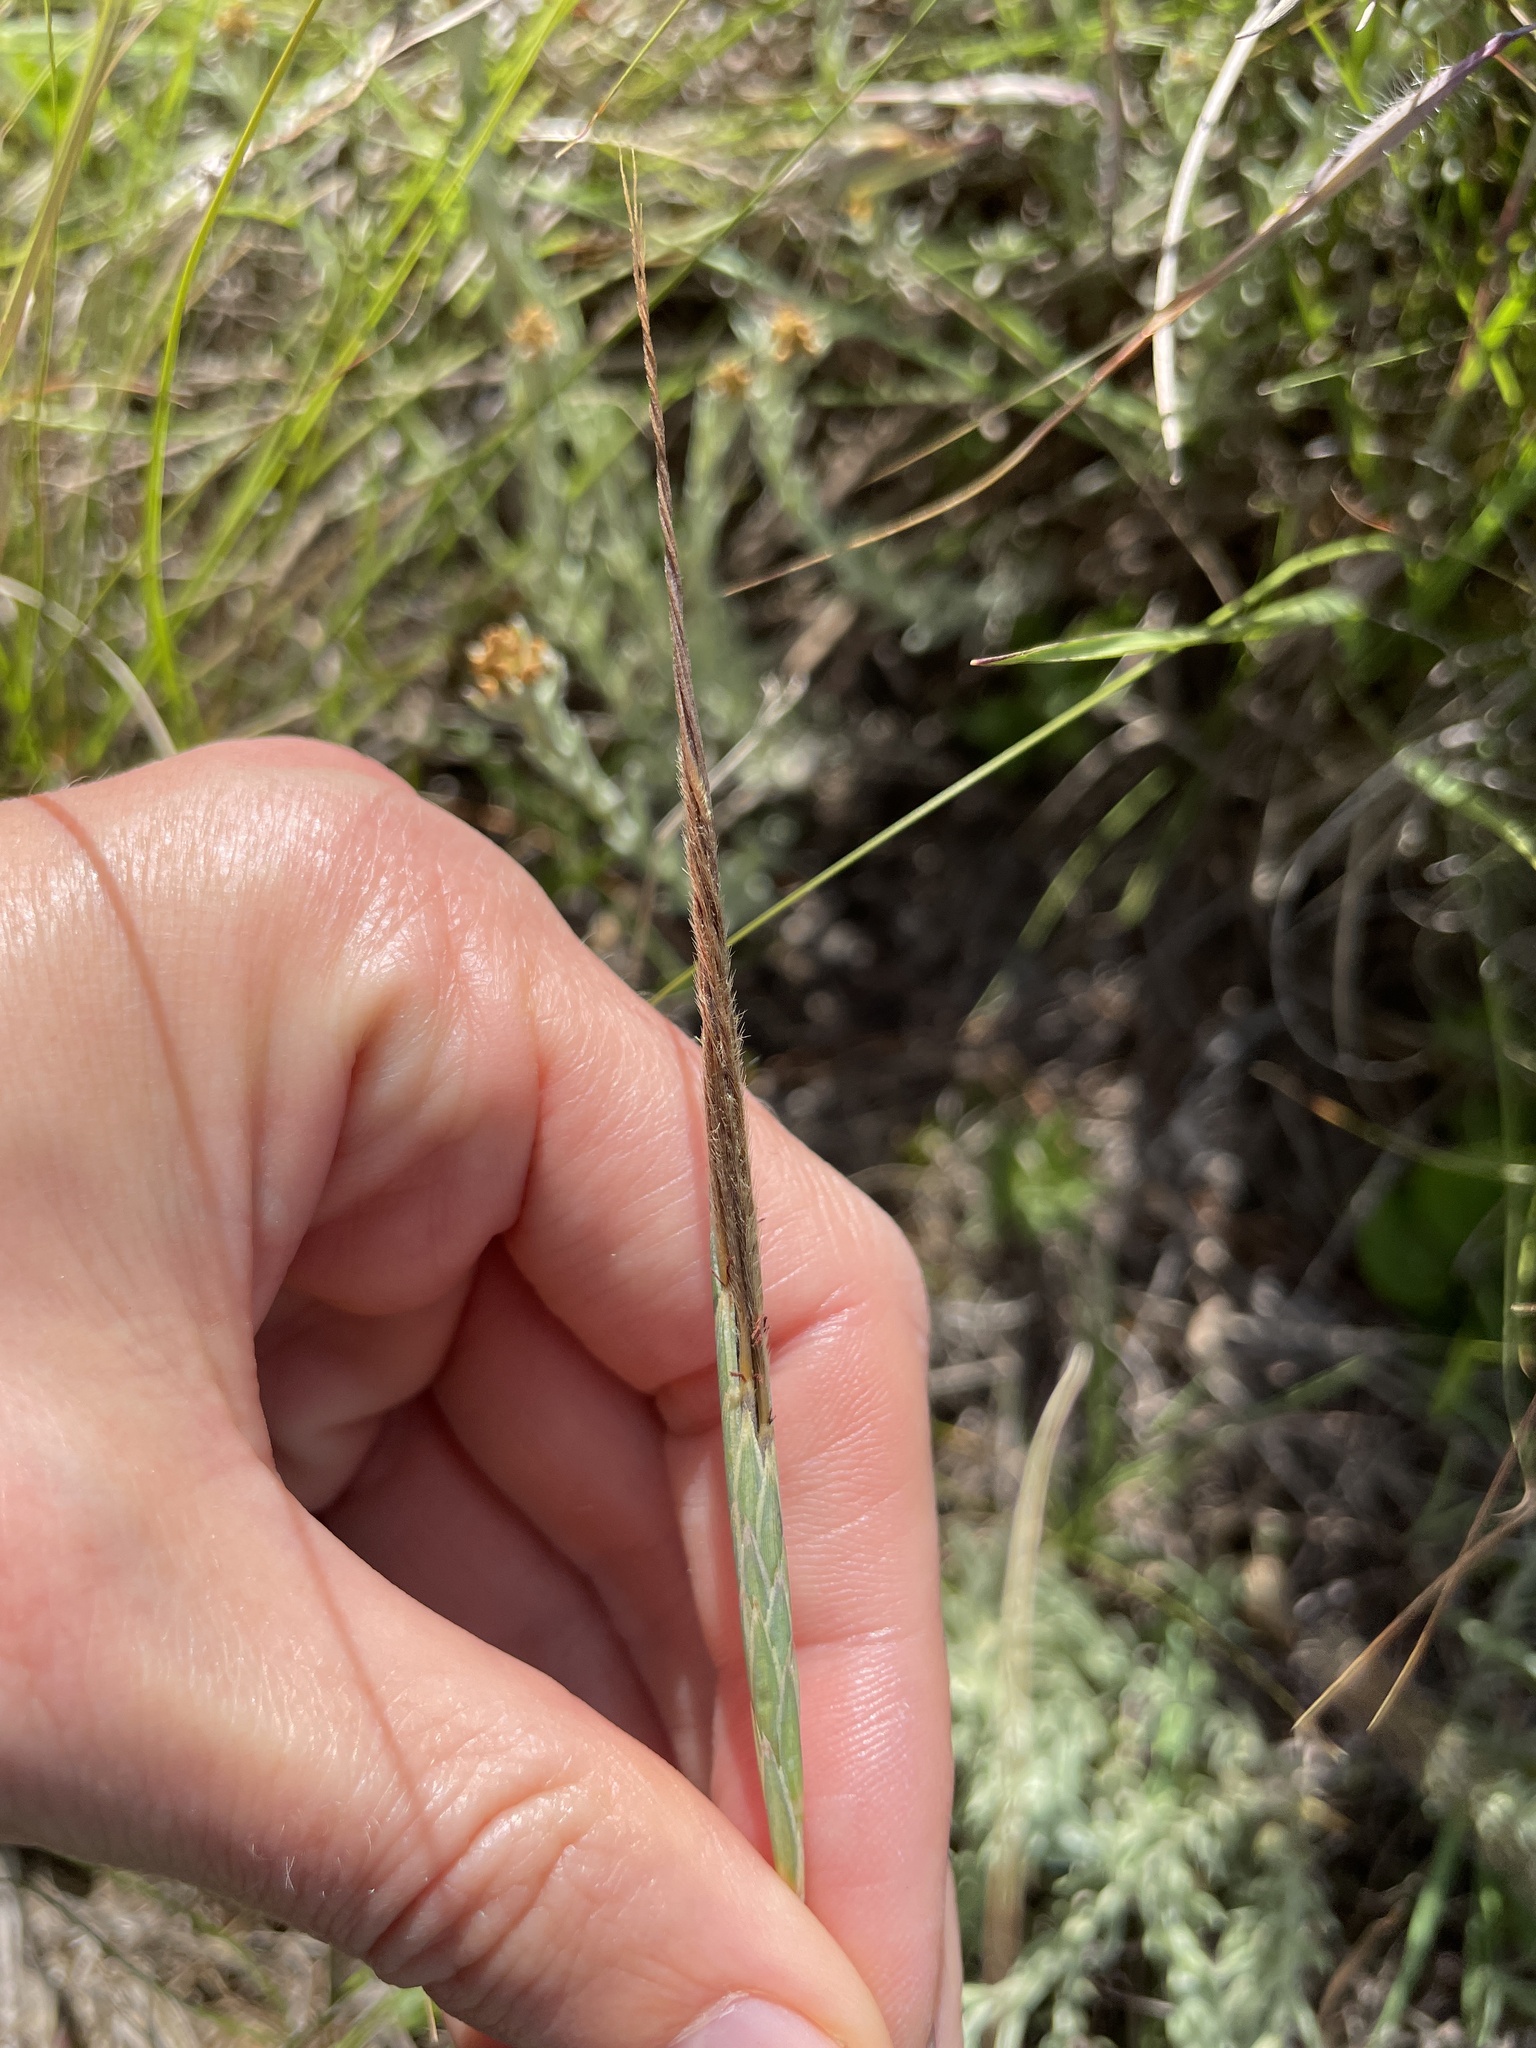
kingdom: Plantae
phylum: Tracheophyta
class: Liliopsida
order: Poales
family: Poaceae
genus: Heteropogon
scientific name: Heteropogon contortus
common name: Tanglehead
